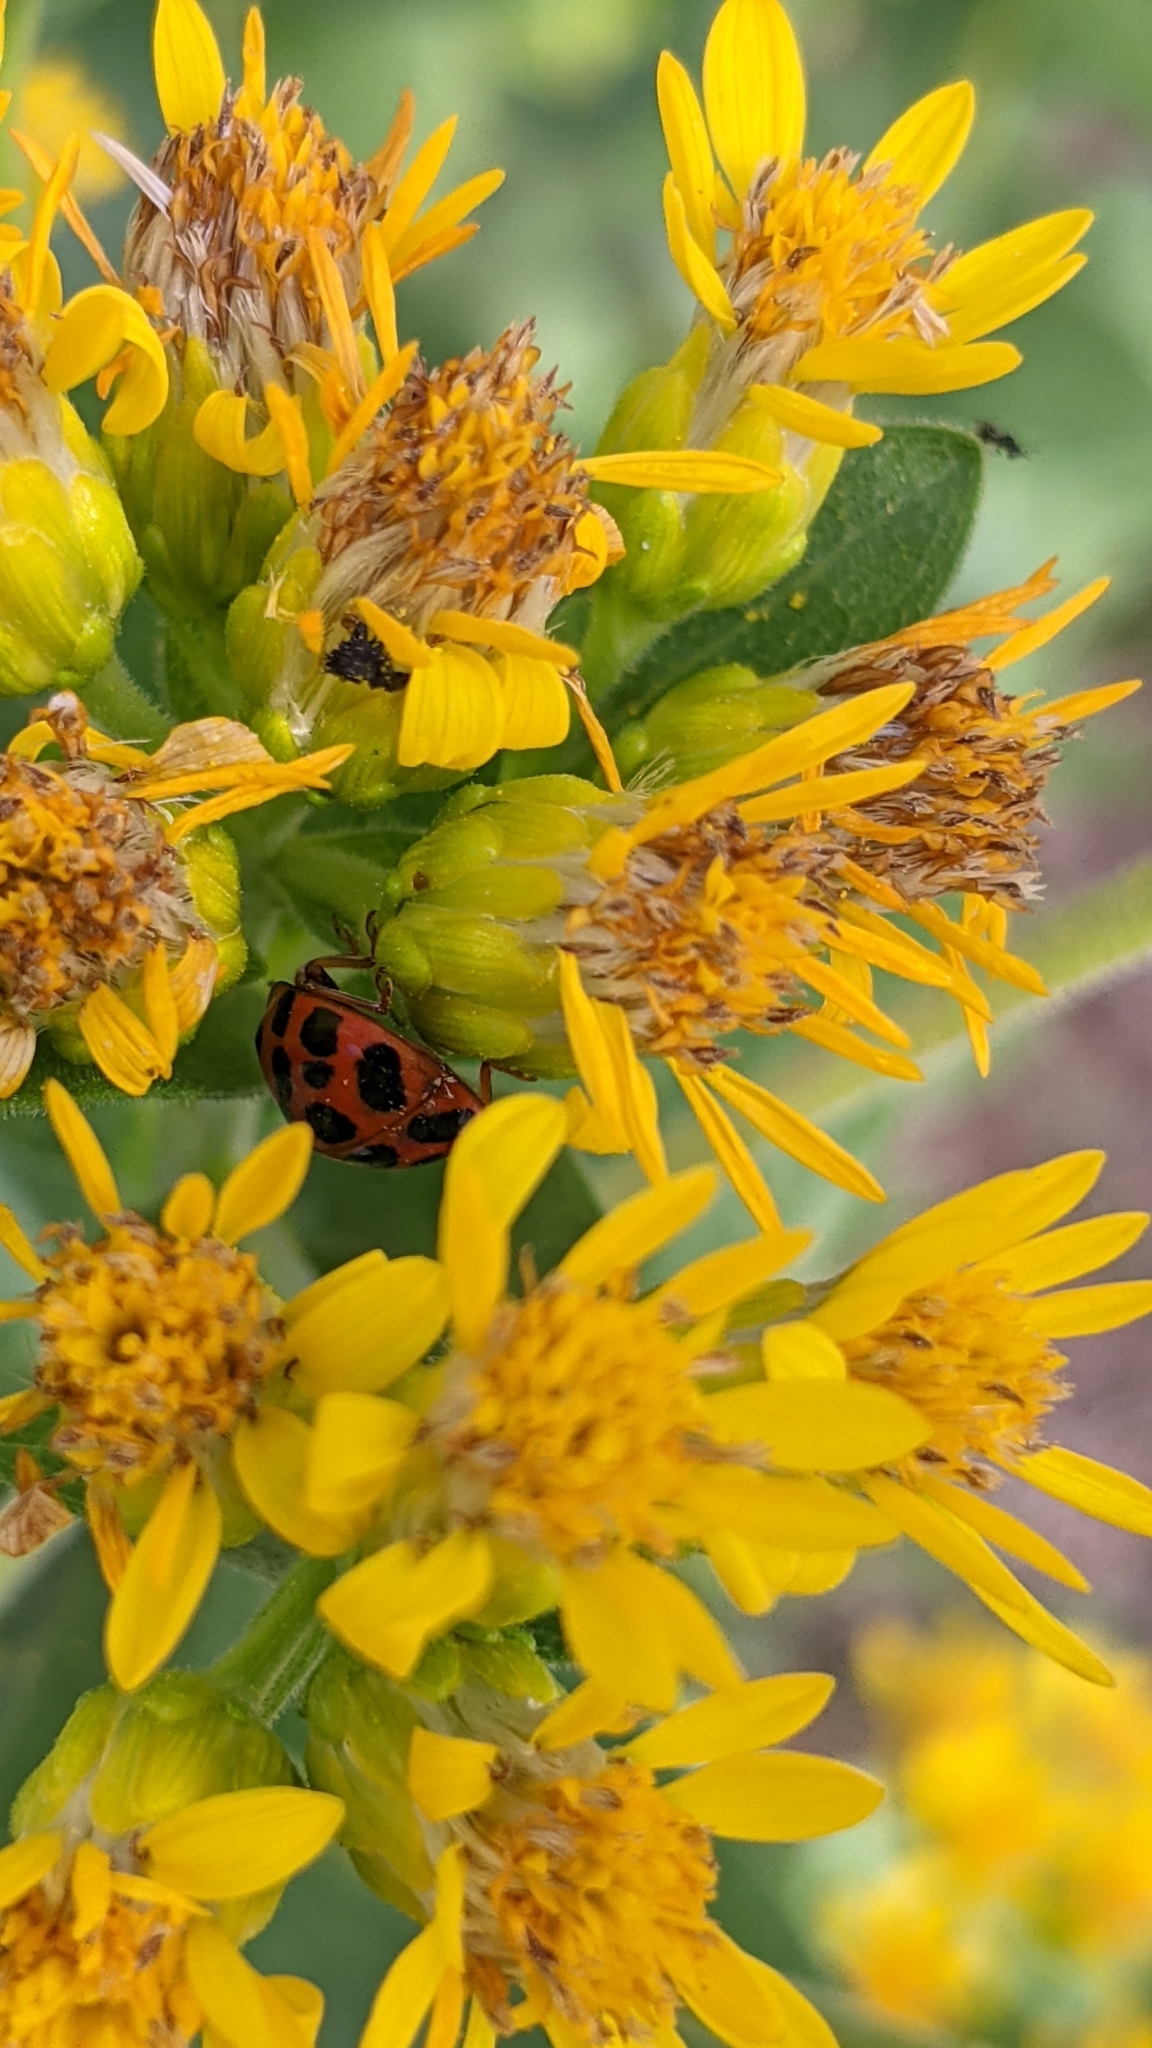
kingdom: Animalia
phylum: Arthropoda
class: Insecta
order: Coleoptera
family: Coccinellidae
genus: Harmonia
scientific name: Harmonia axyridis
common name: Harlequin ladybird
